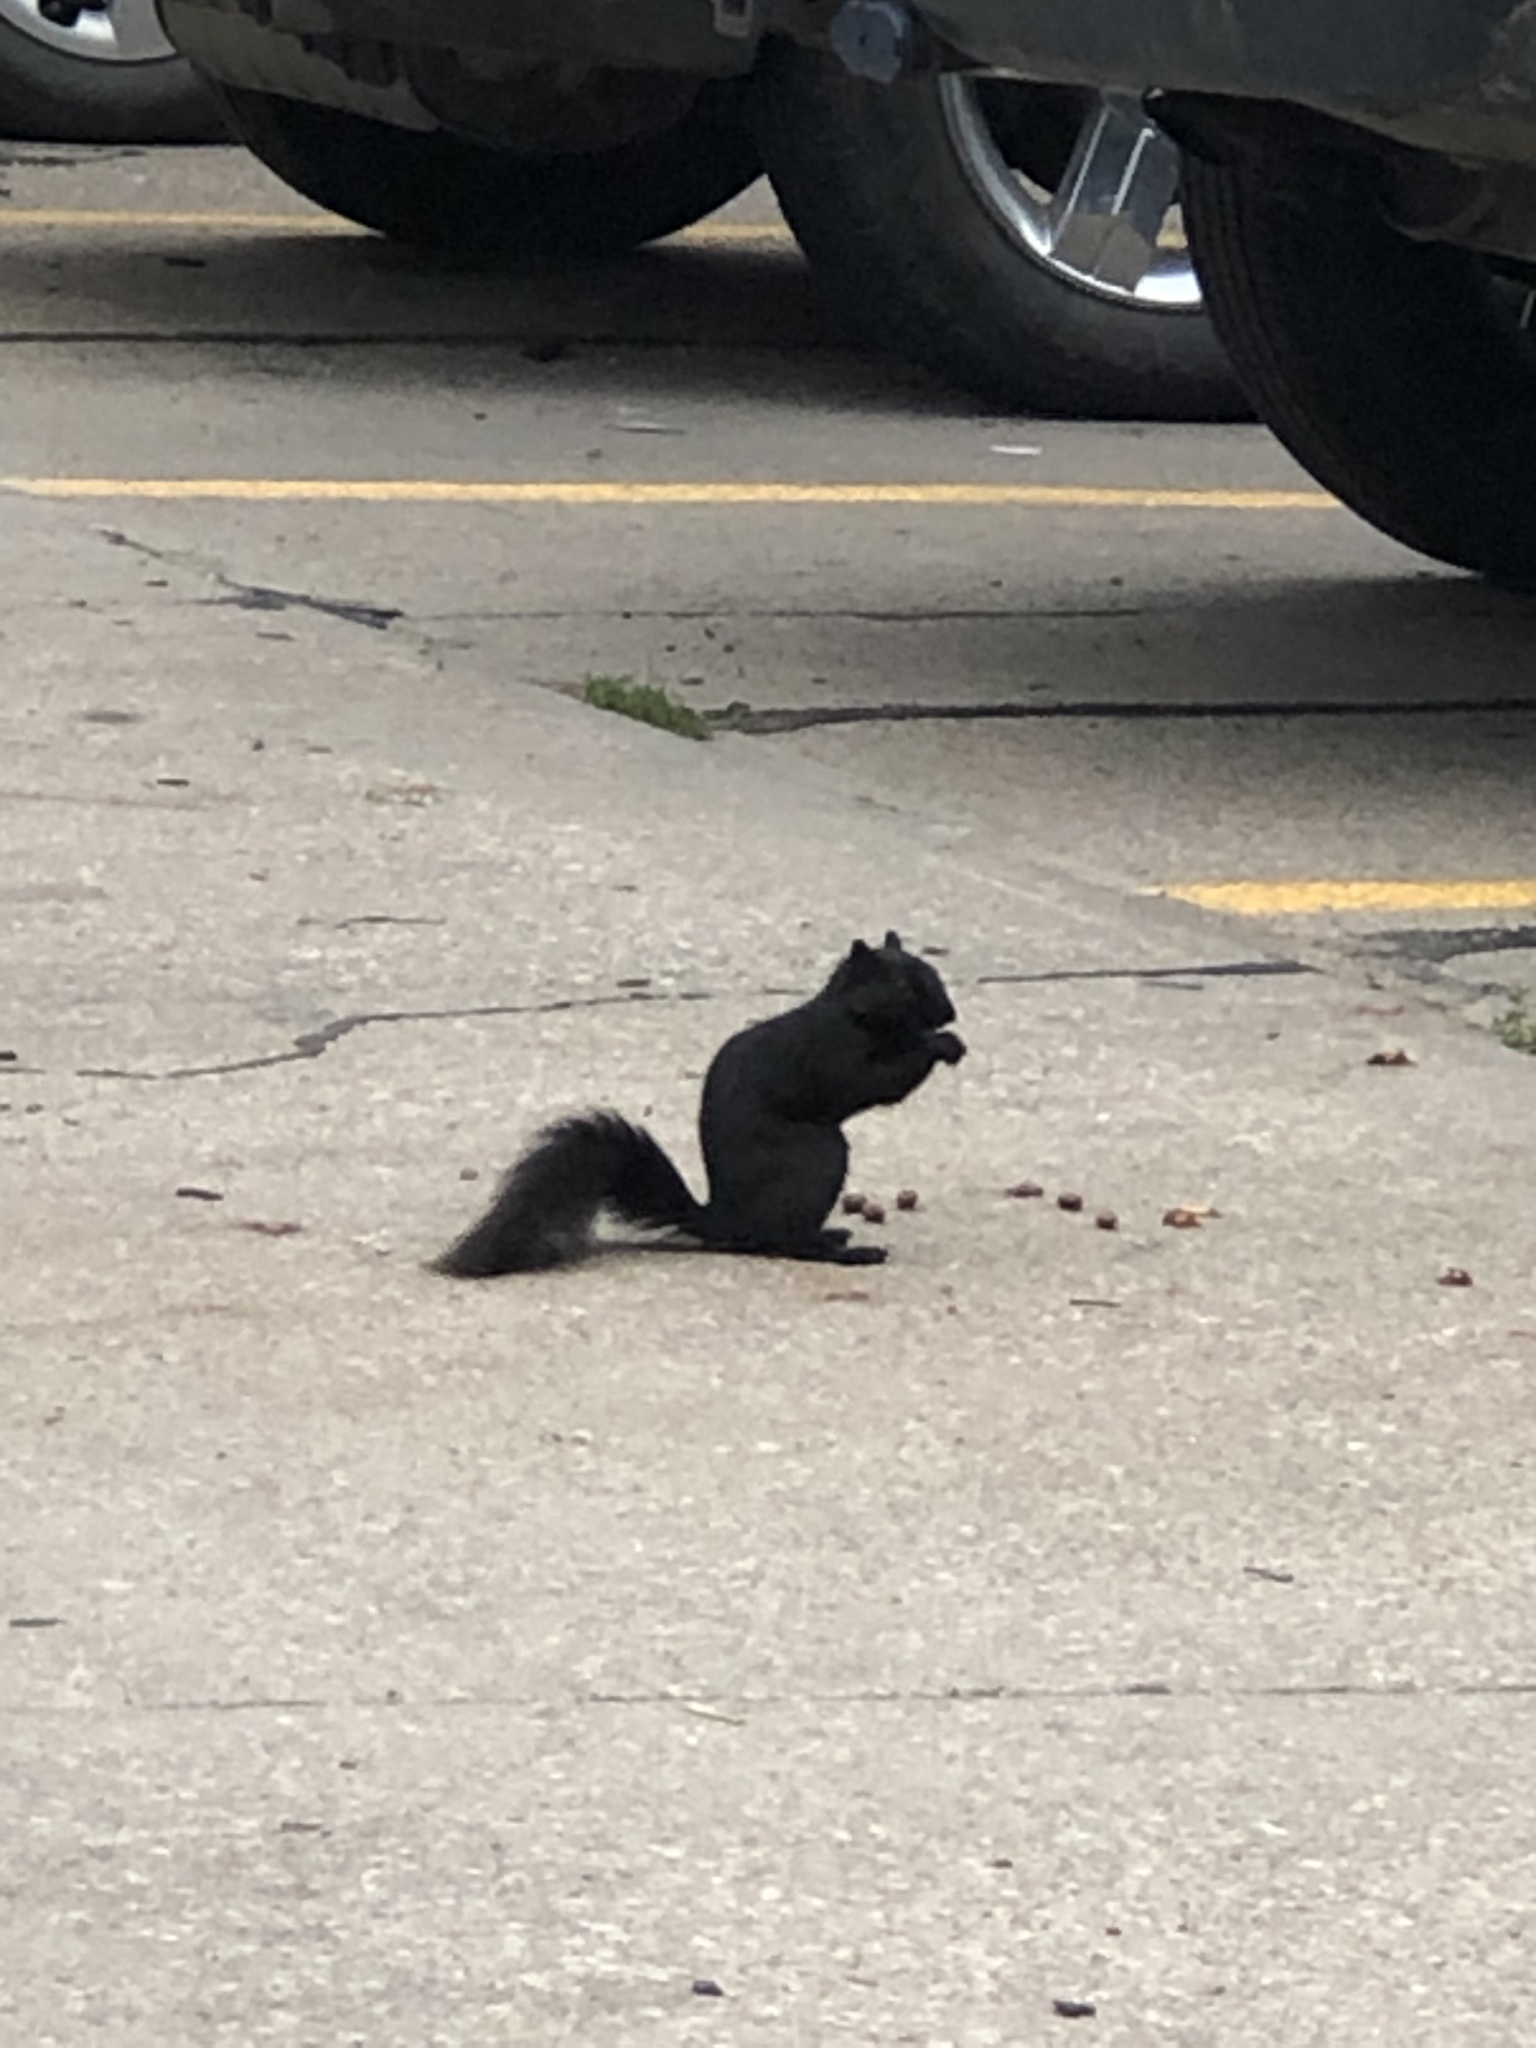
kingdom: Animalia
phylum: Chordata
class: Mammalia
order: Rodentia
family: Sciuridae
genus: Sciurus
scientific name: Sciurus niger
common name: Fox squirrel
